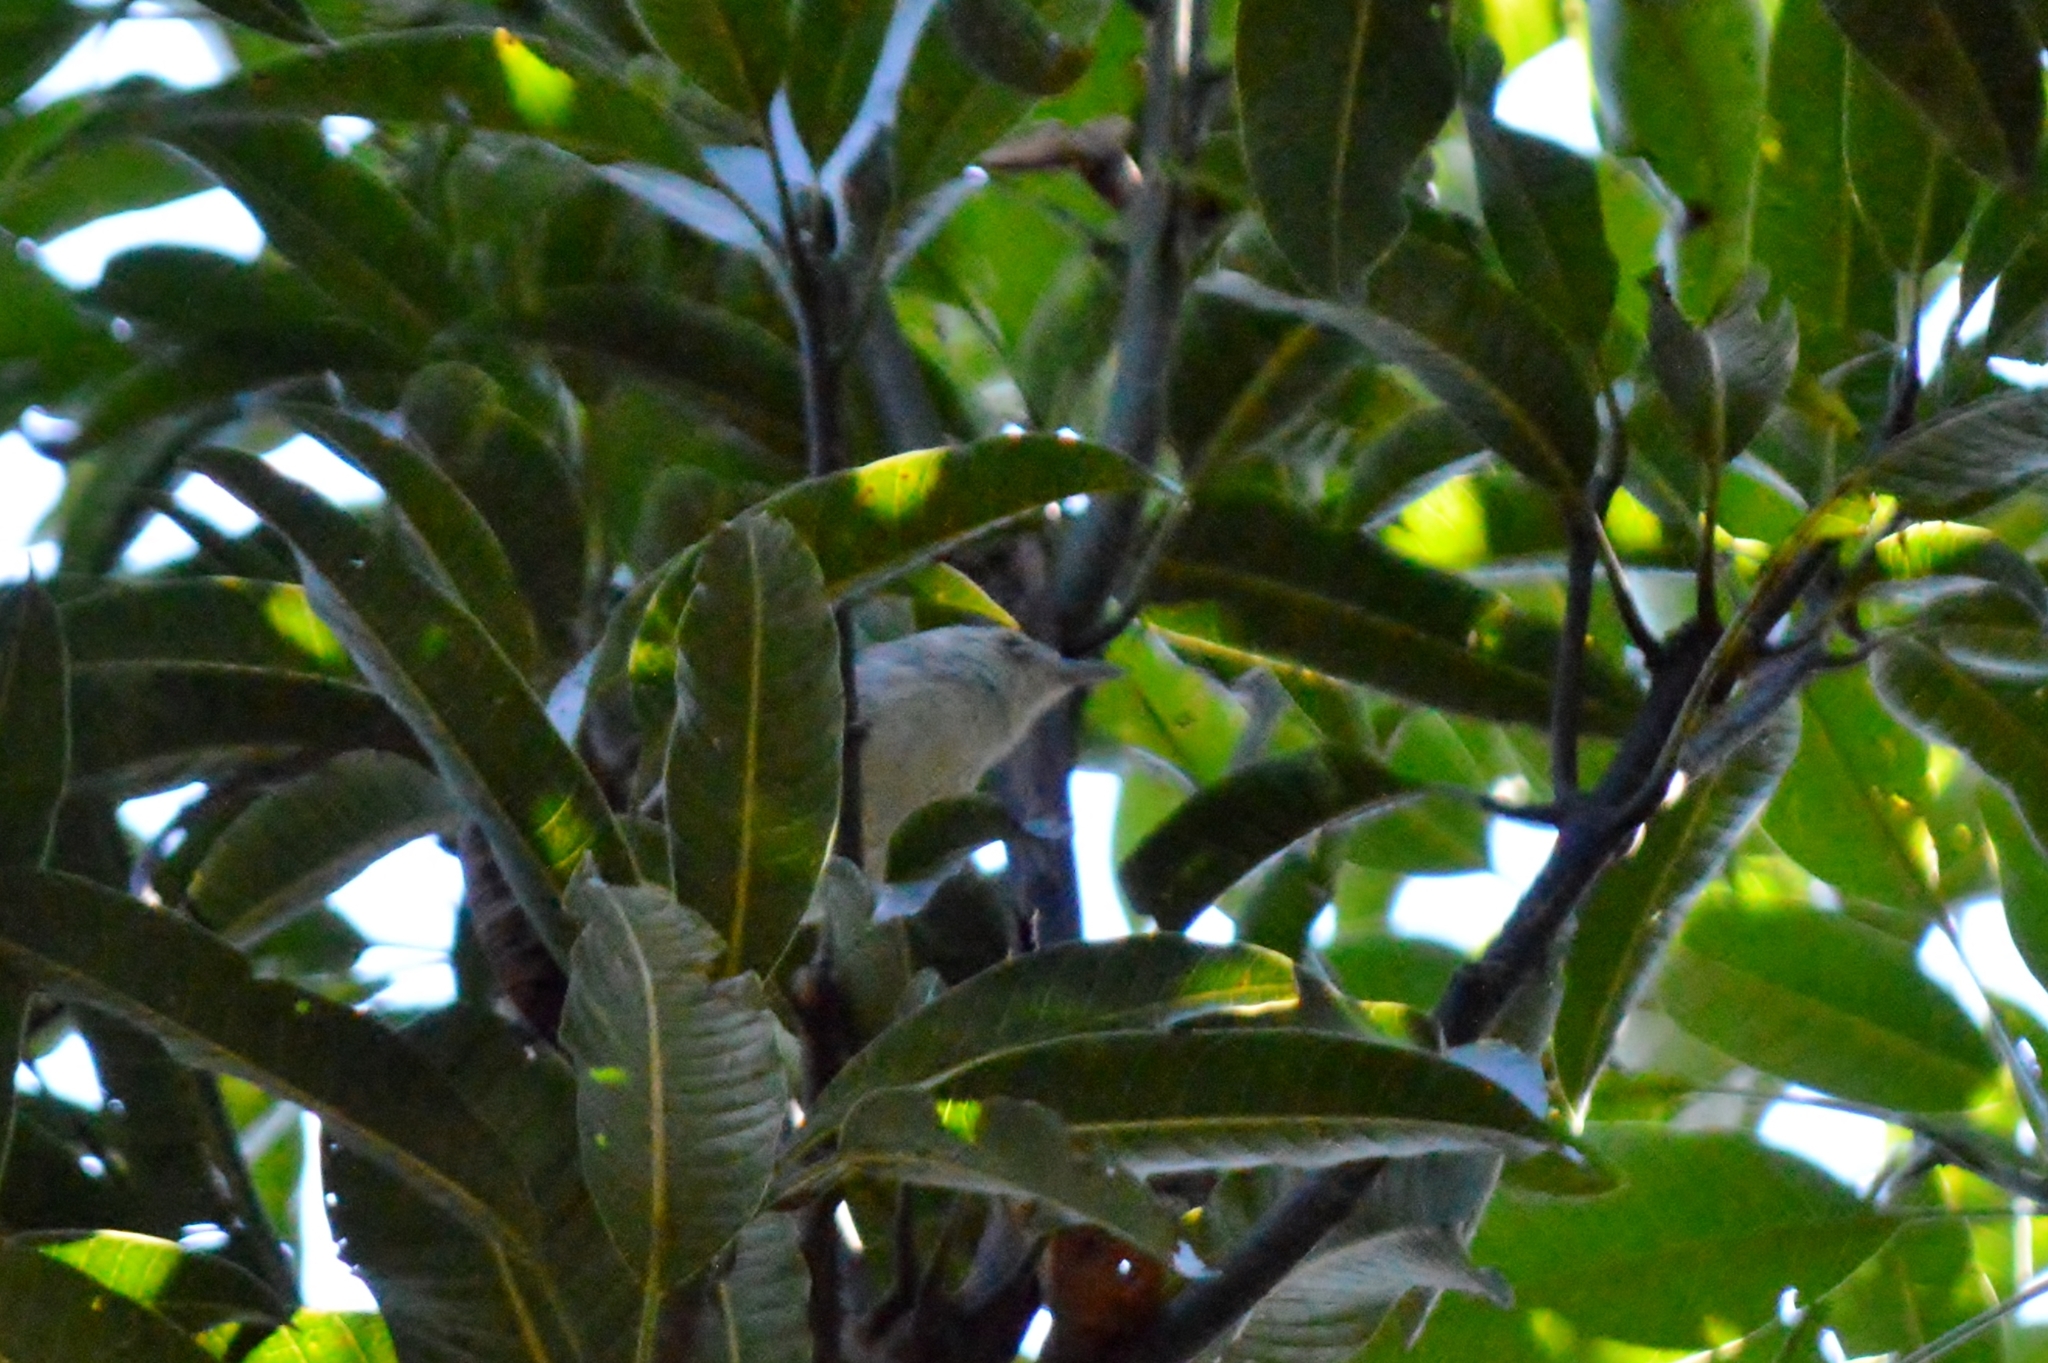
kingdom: Animalia
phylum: Chordata
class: Aves
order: Passeriformes
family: Thamnophilidae
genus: Herpsilochmus
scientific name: Herpsilochmus longirostris
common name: Large-billed antwren
